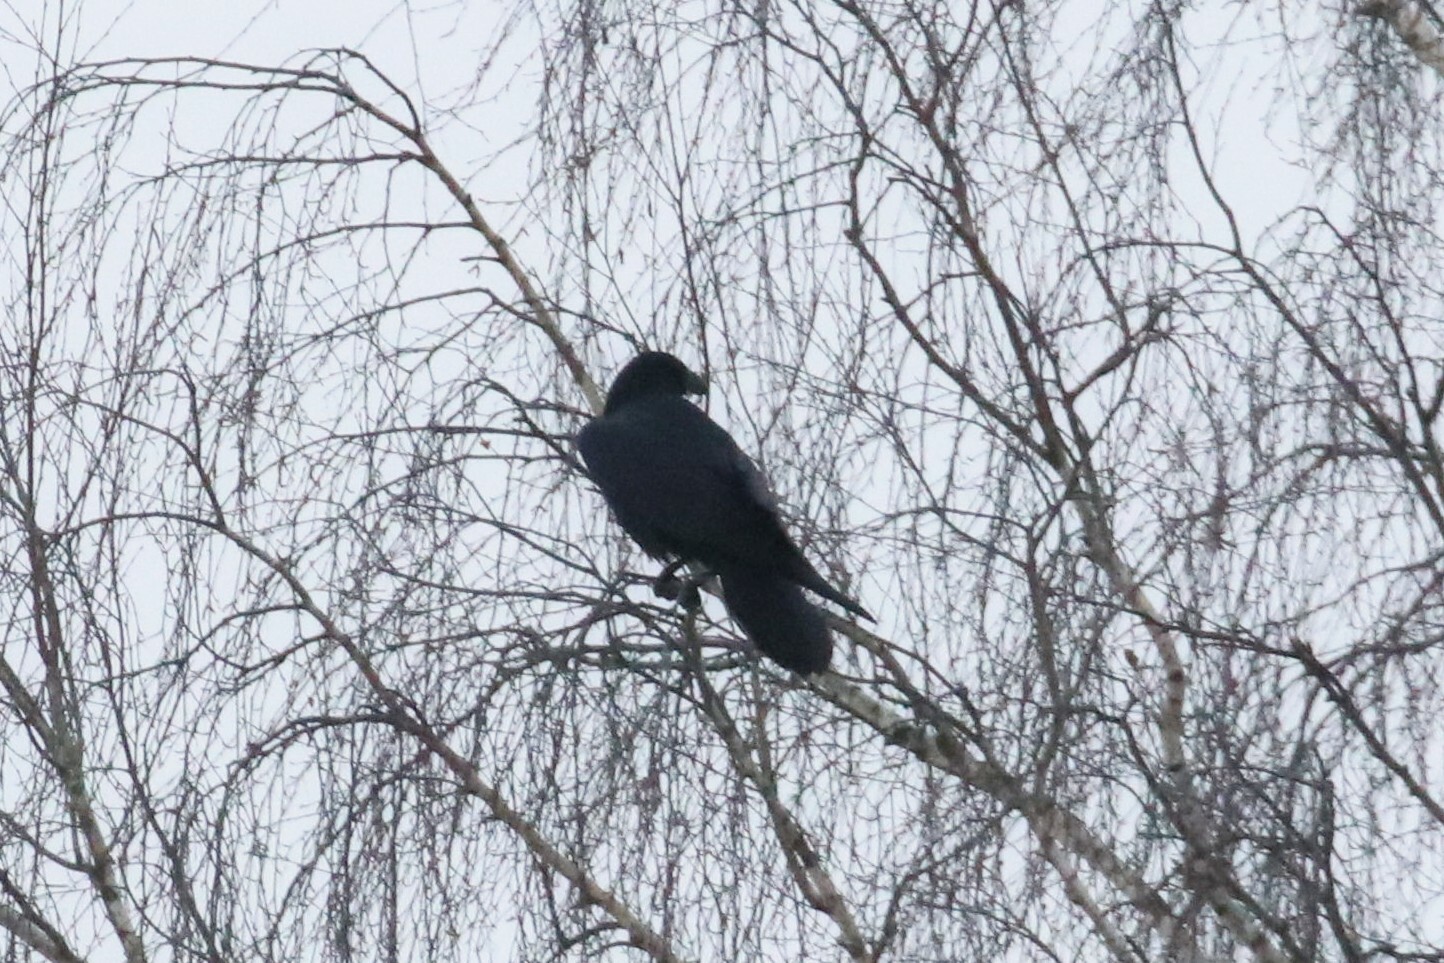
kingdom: Animalia
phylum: Chordata
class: Aves
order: Passeriformes
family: Corvidae
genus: Corvus
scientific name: Corvus corax
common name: Common raven
